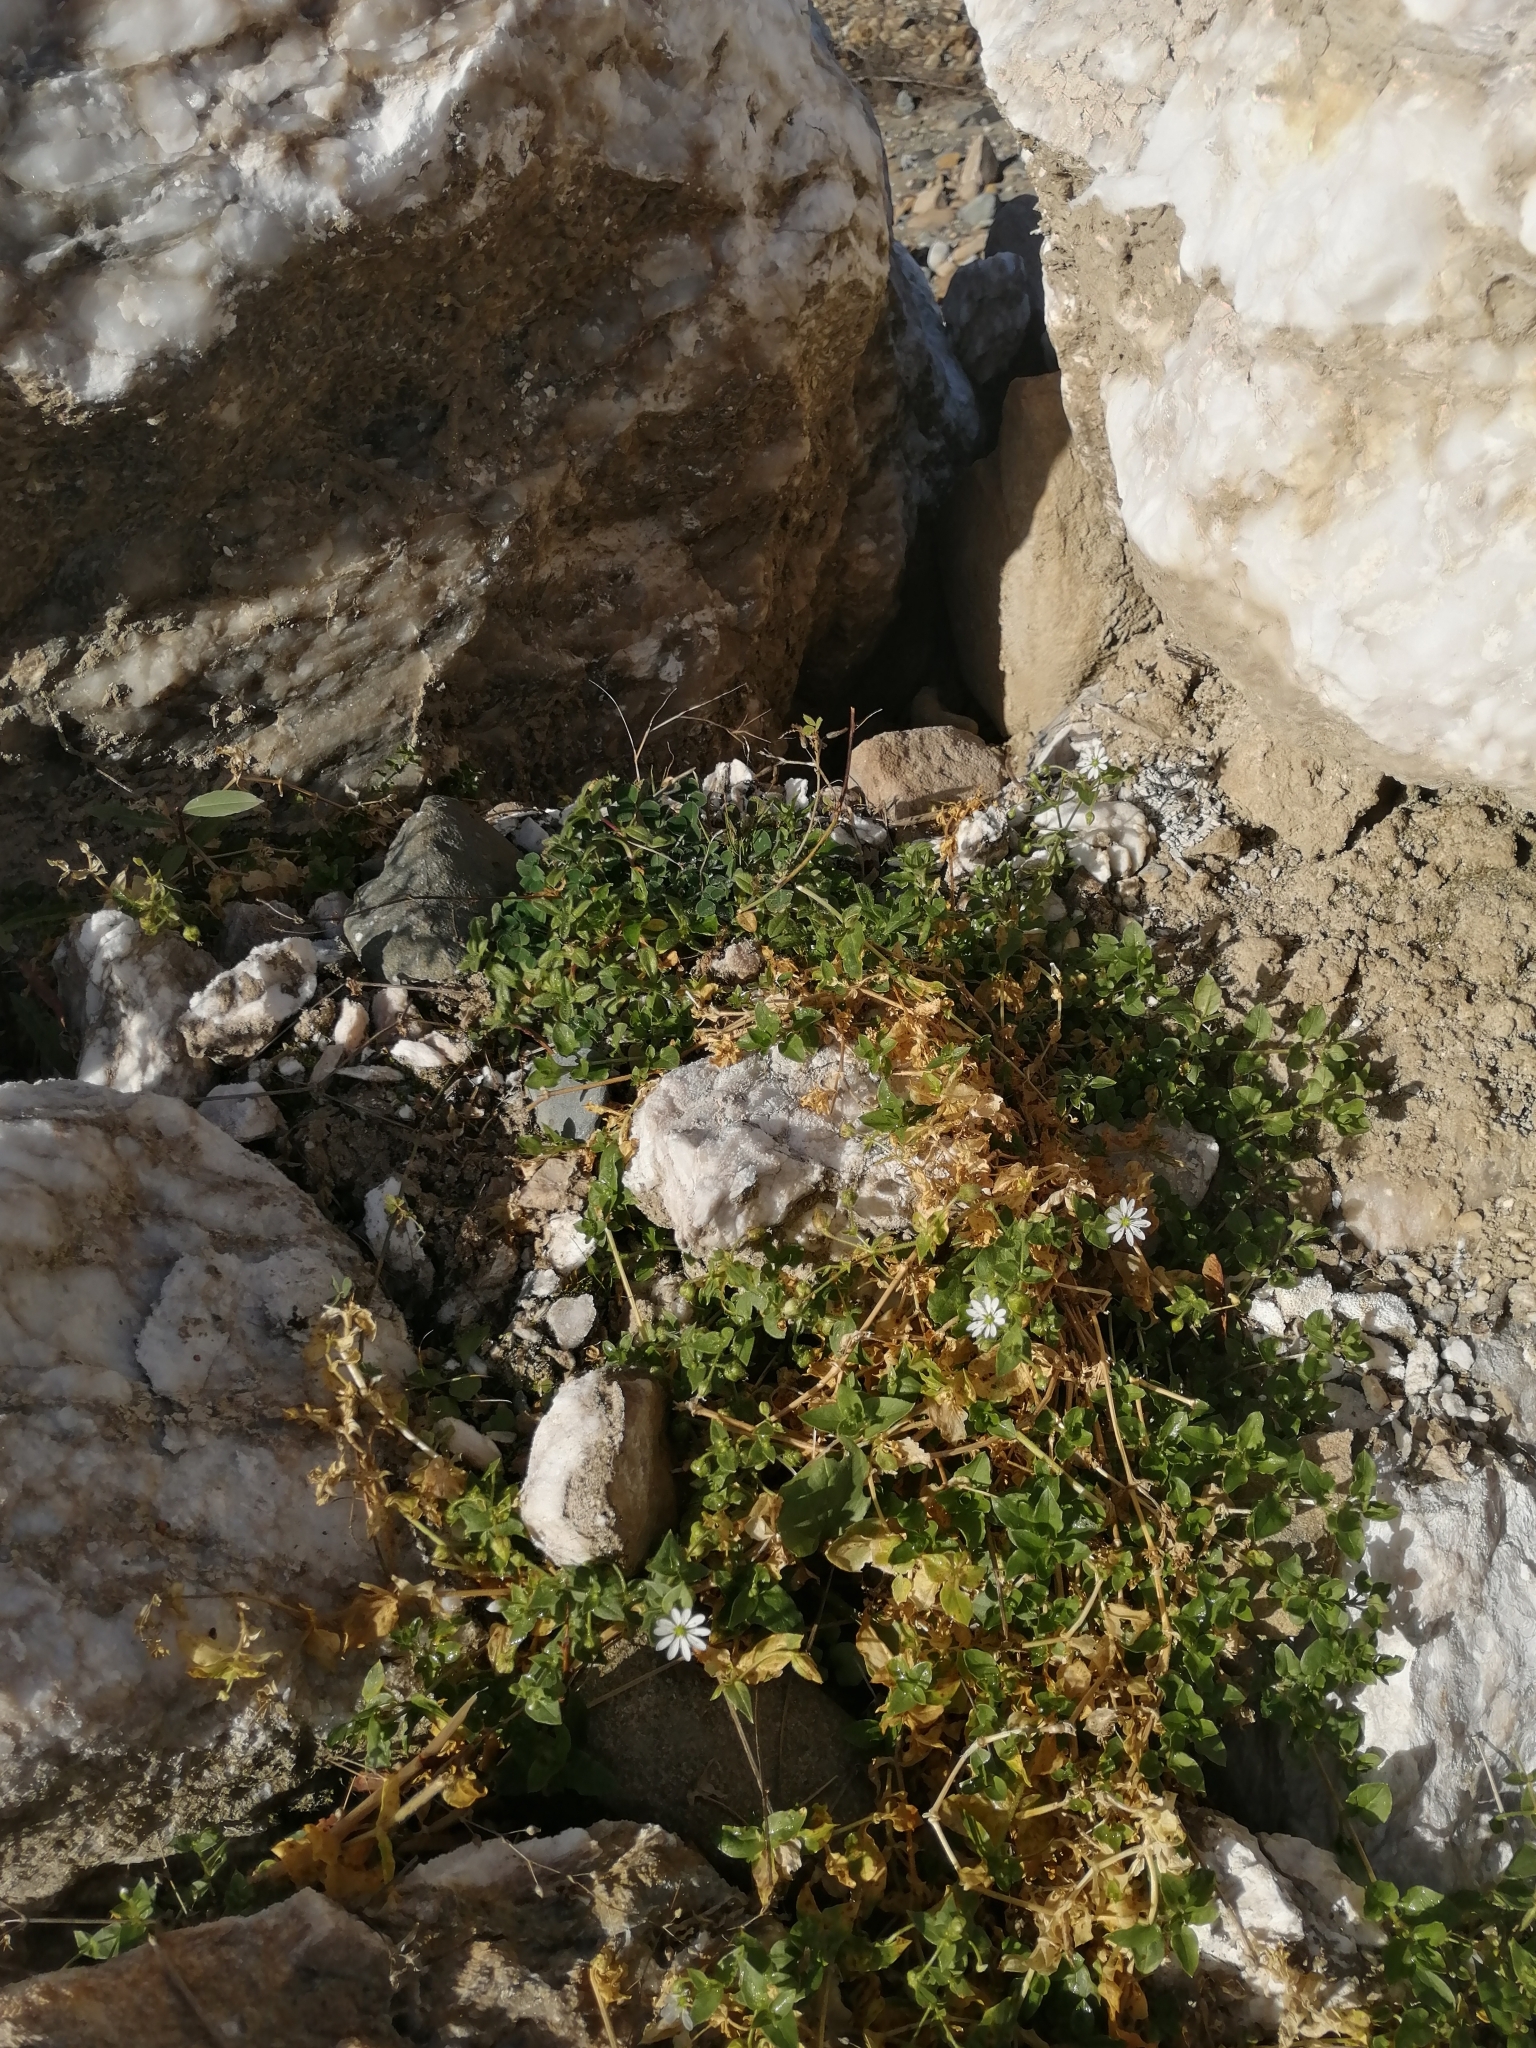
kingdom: Plantae
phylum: Tracheophyta
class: Magnoliopsida
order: Caryophyllales
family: Caryophyllaceae
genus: Stellaria
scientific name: Stellaria aquatica
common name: Water chickweed
